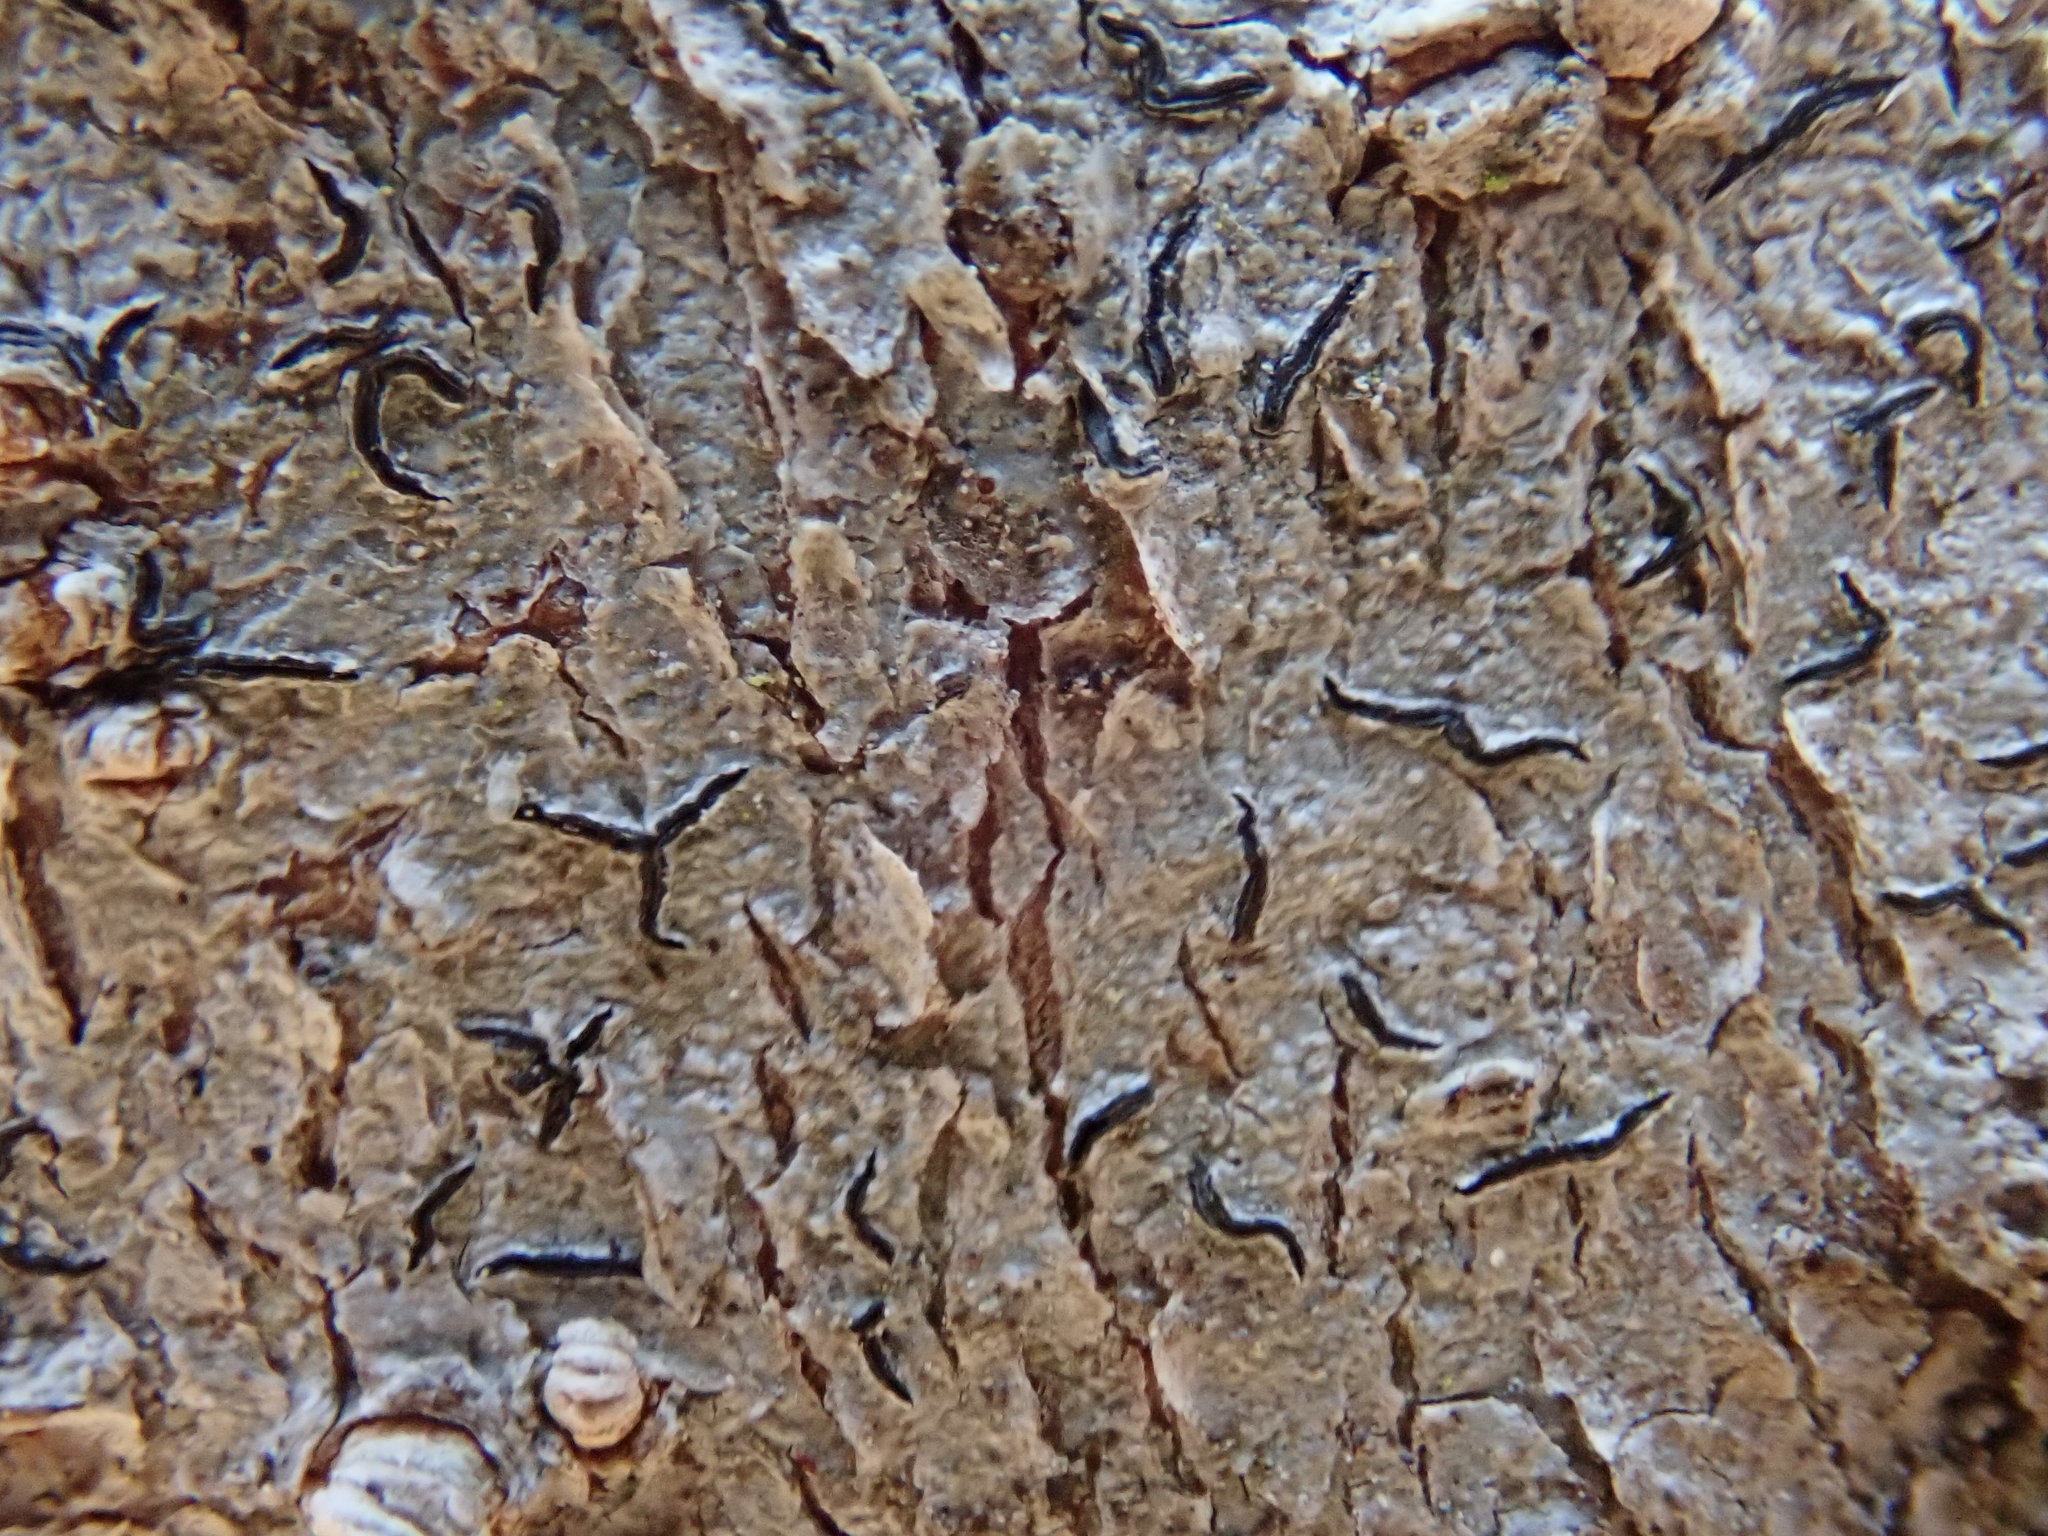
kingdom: Fungi
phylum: Ascomycota
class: Lecanoromycetes
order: Ostropales
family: Graphidaceae
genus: Graphis
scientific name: Graphis scripta
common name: Script lichen
